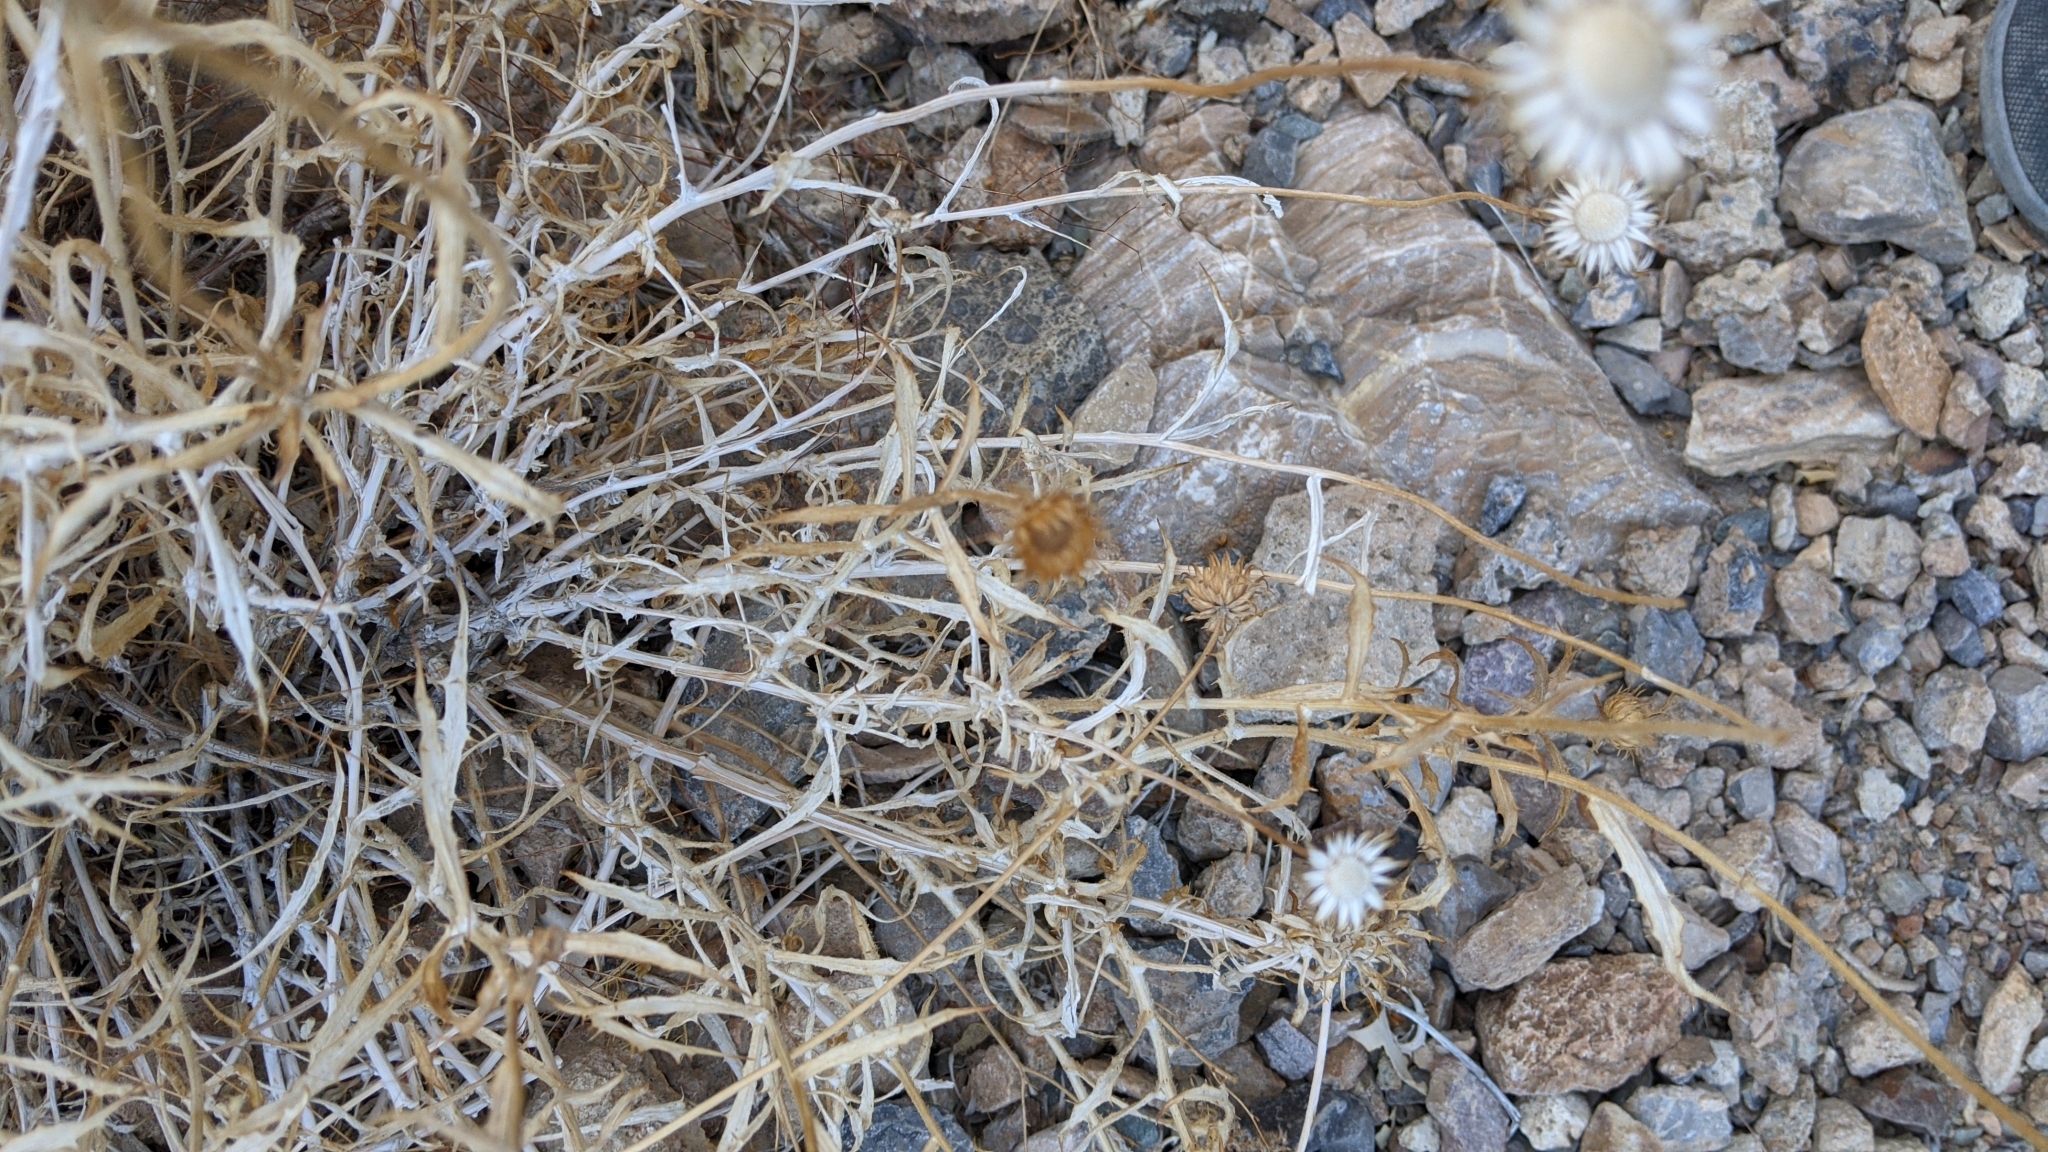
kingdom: Plantae
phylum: Tracheophyta
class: Magnoliopsida
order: Asterales
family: Asteraceae
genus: Xylorhiza
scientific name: Xylorhiza tortifolia
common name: Hurt-leaf woody-aster
